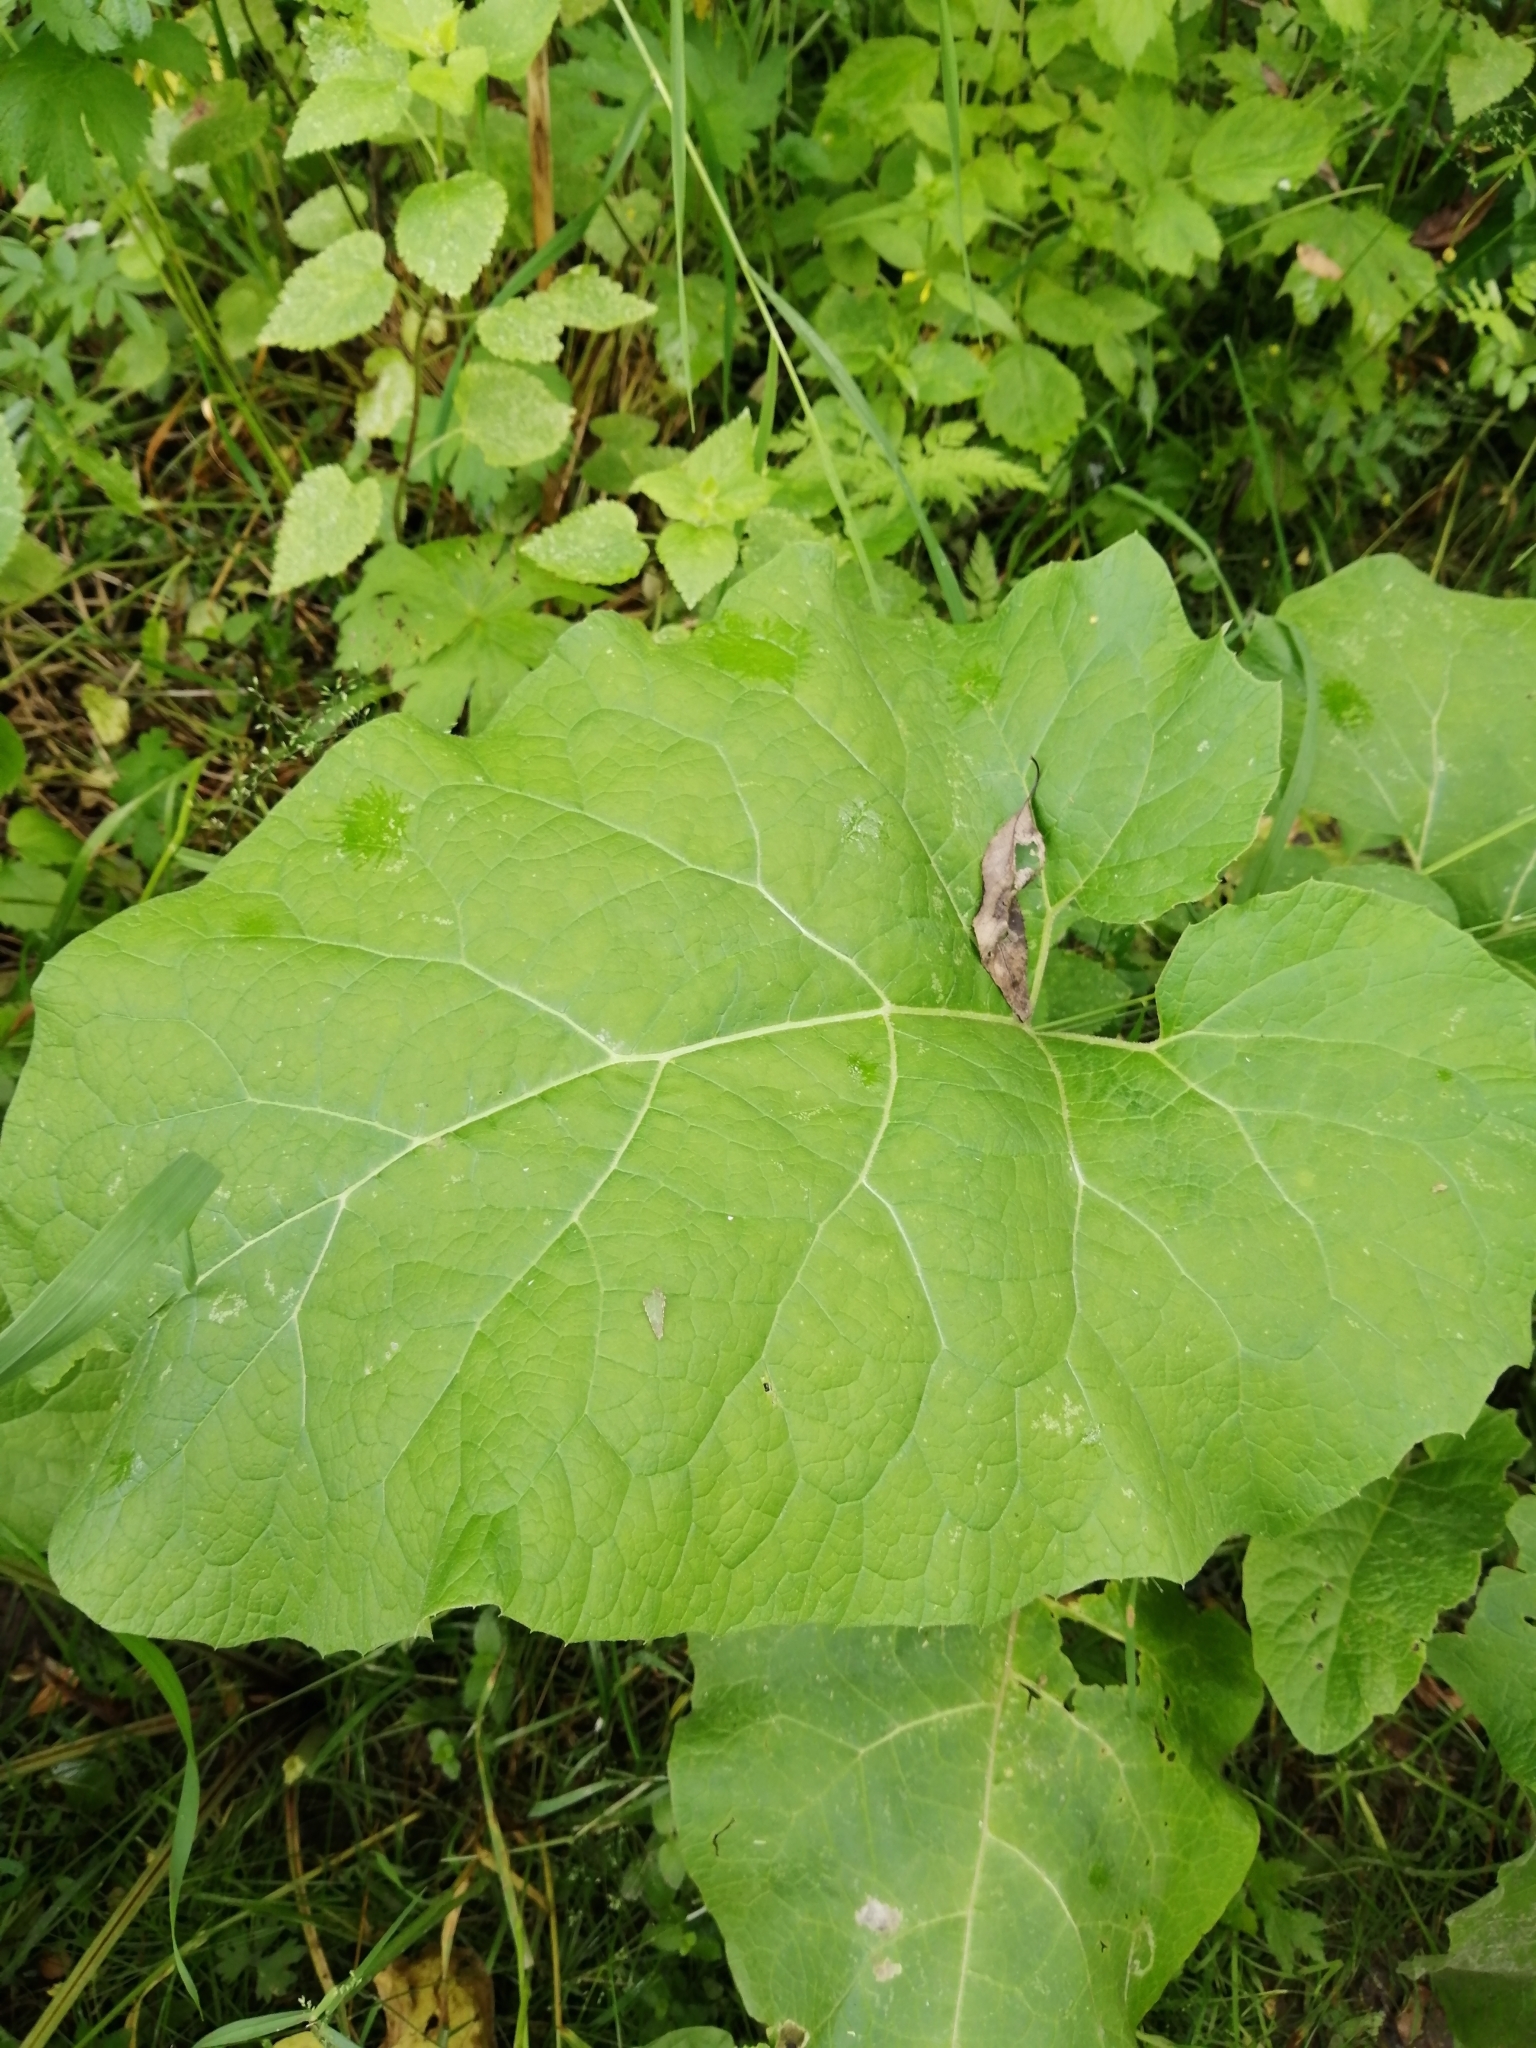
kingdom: Plantae
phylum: Tracheophyta
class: Magnoliopsida
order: Asterales
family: Asteraceae
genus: Arctium
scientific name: Arctium
